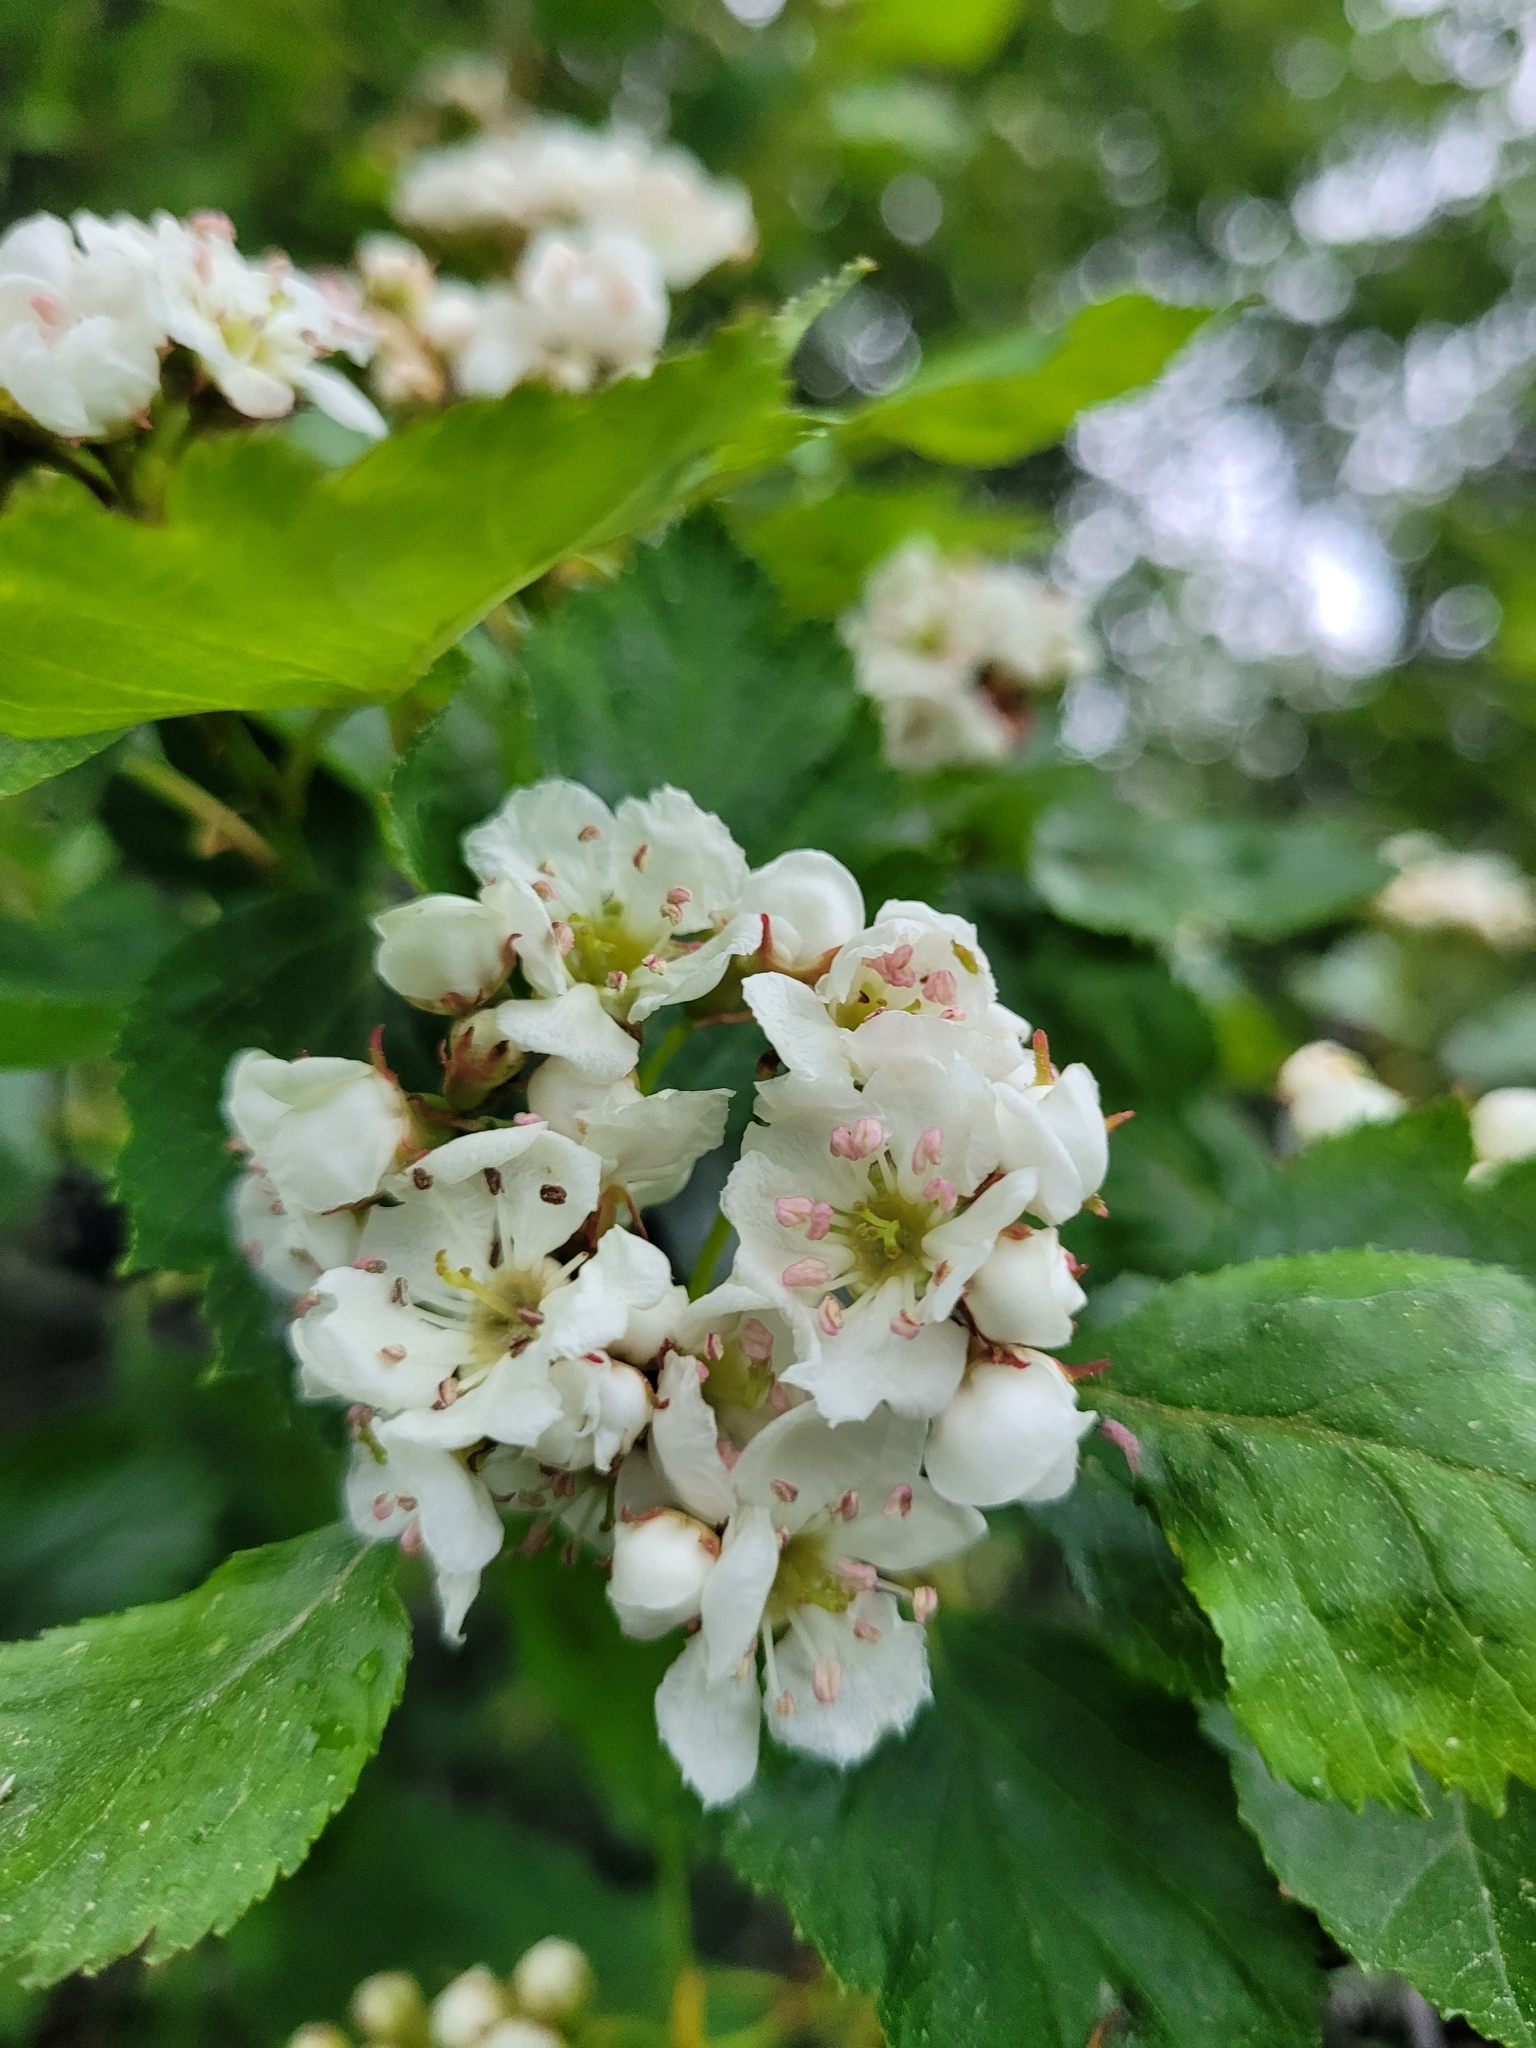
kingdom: Plantae
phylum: Tracheophyta
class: Magnoliopsida
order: Rosales
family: Rosaceae
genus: Crataegus
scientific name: Crataegus douglasii
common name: Black hawthorn
